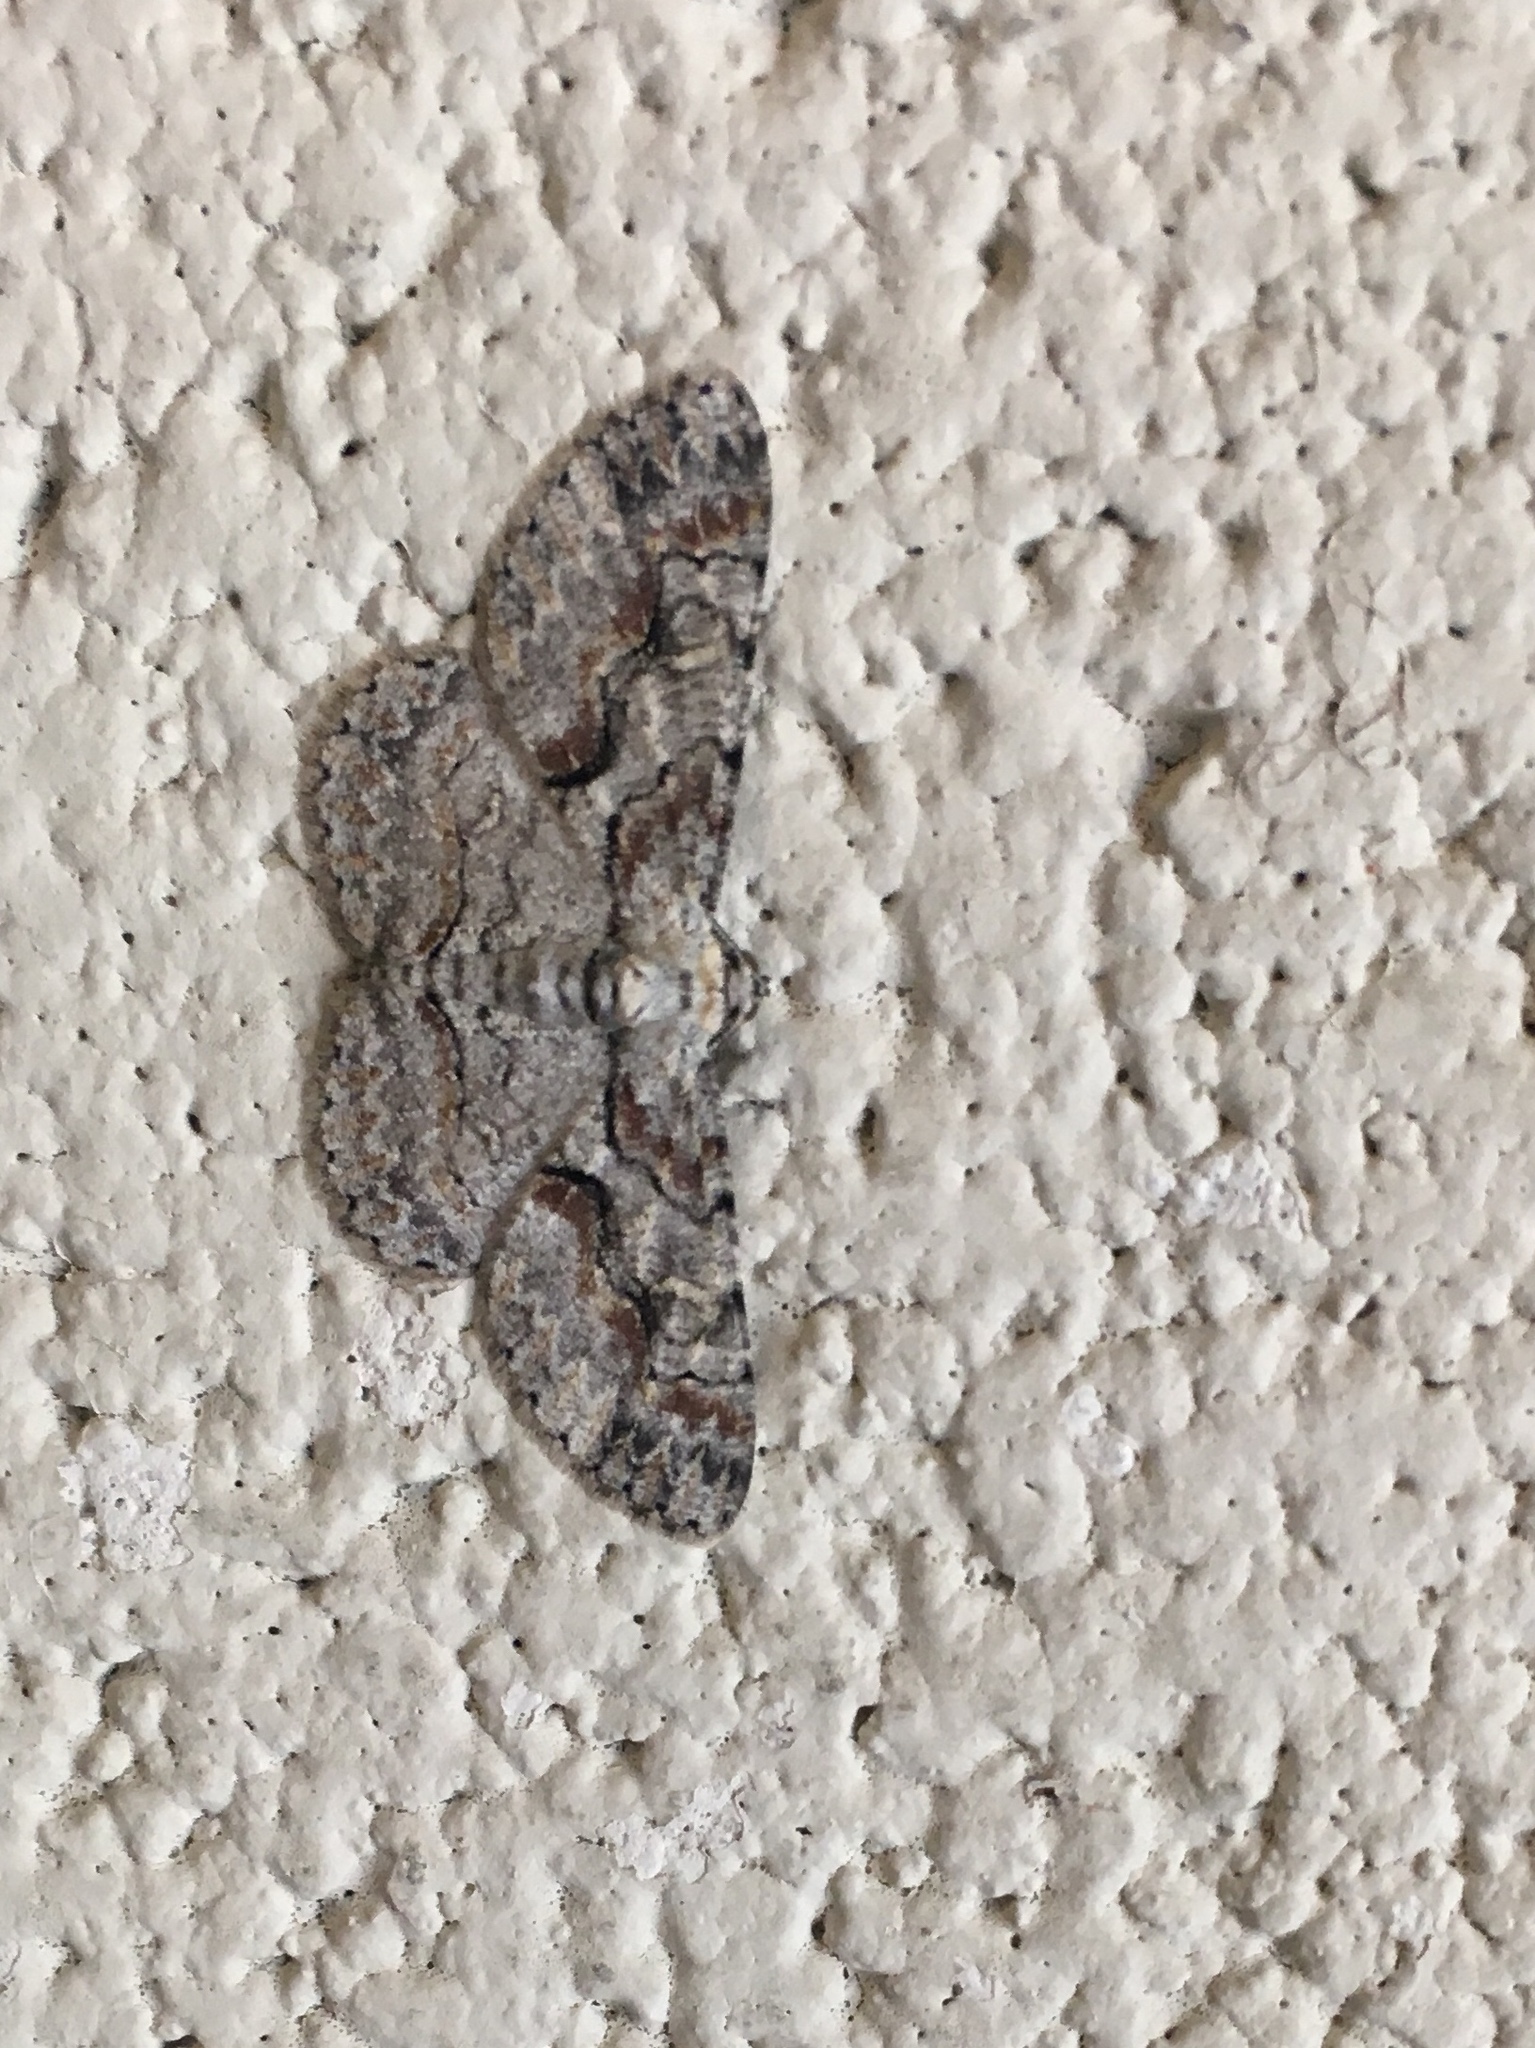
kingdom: Animalia
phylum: Arthropoda
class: Insecta
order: Lepidoptera
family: Geometridae
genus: Iridopsis
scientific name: Iridopsis defectaria
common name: Brown-shaded gray
